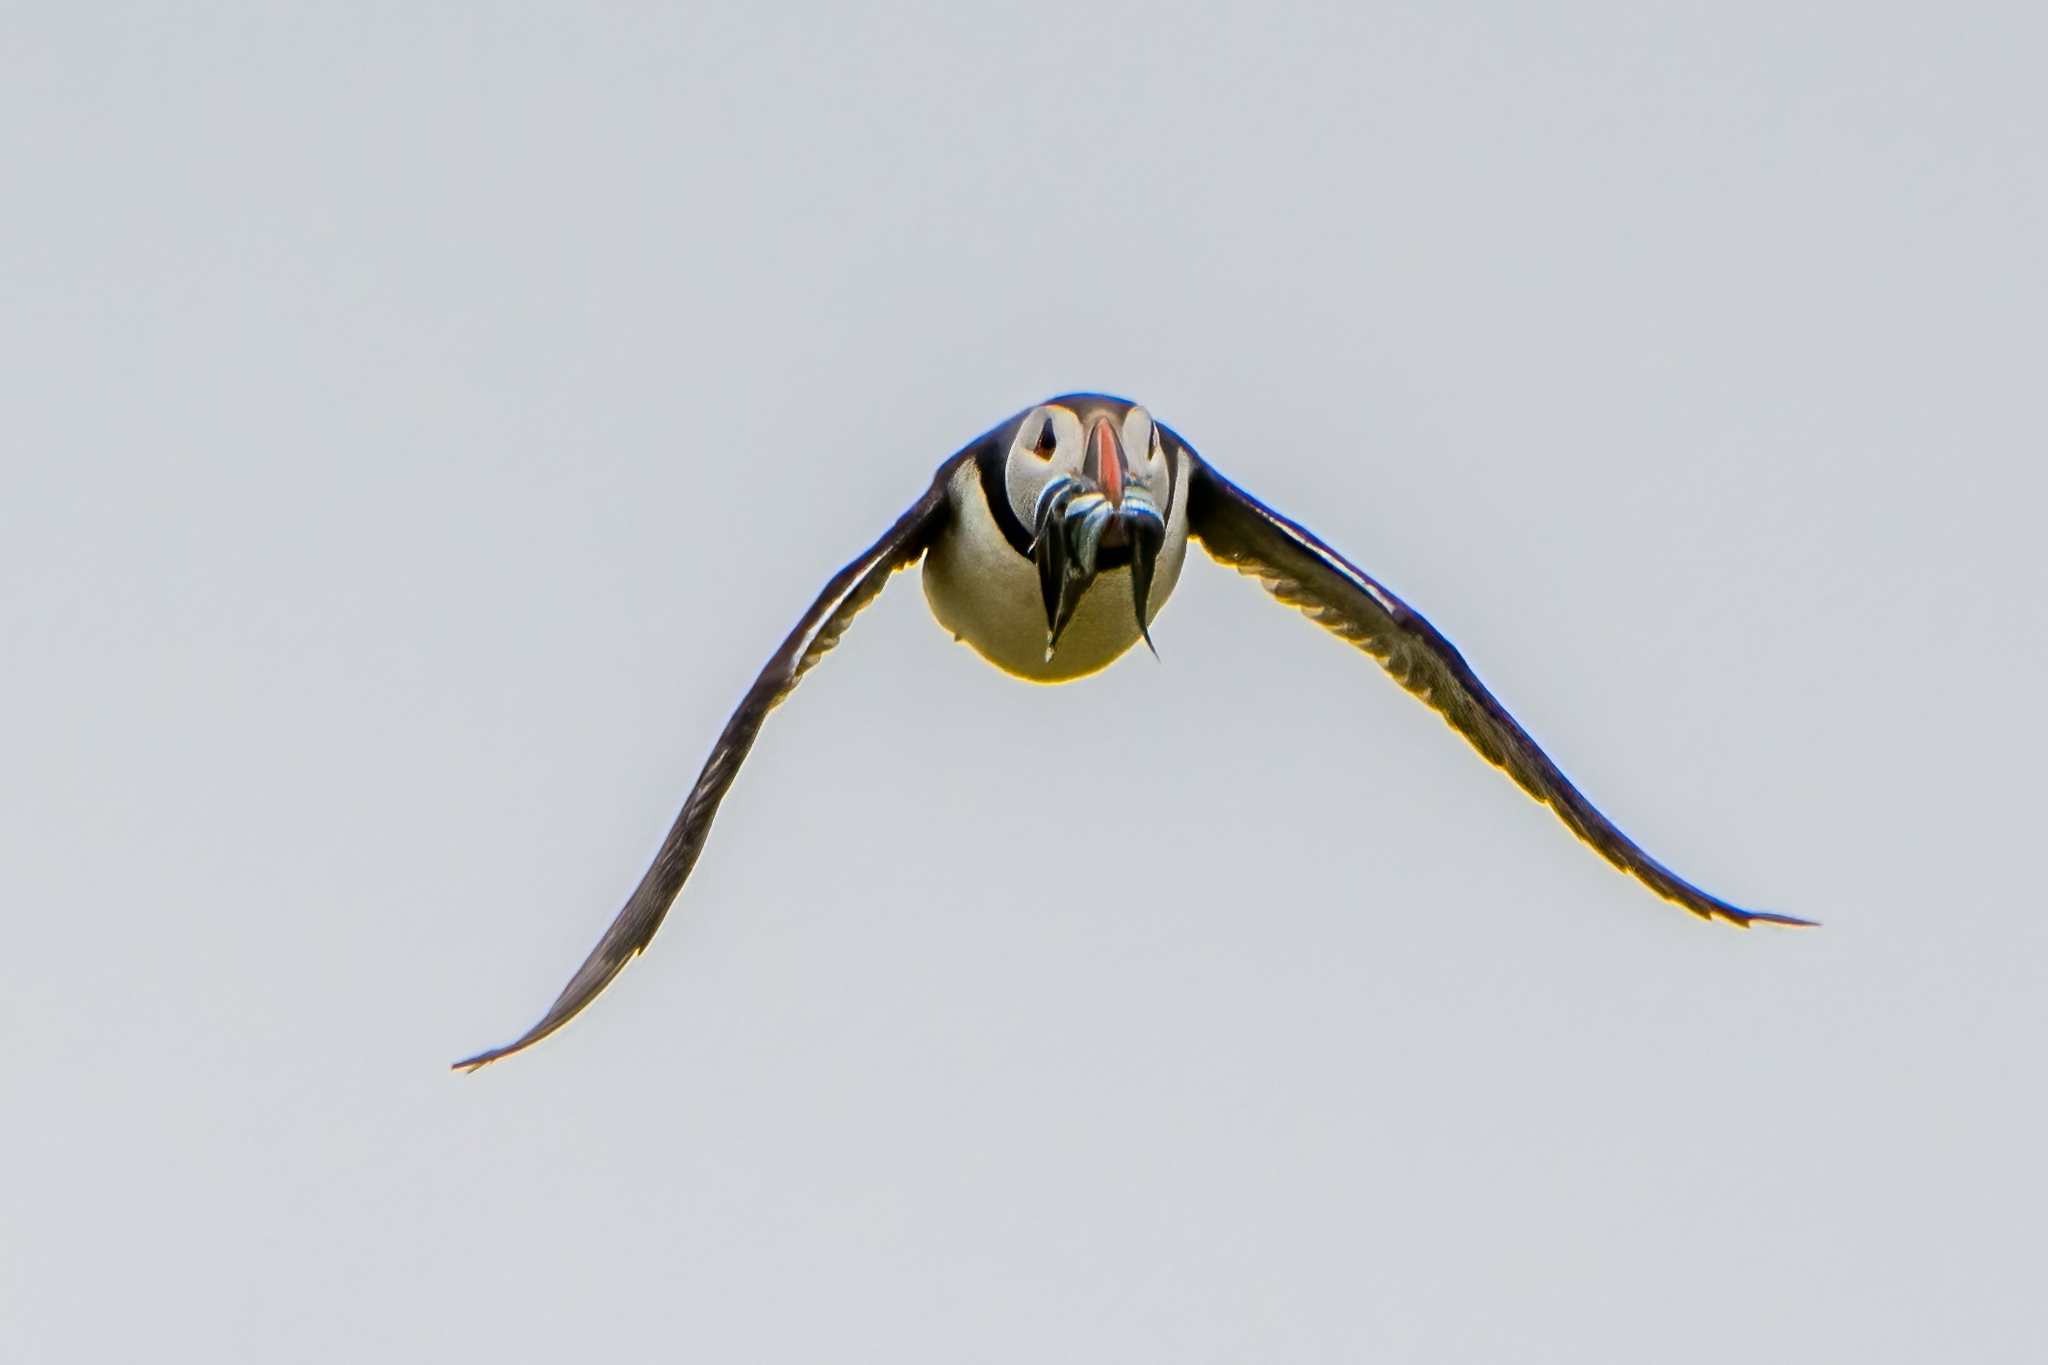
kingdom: Animalia
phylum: Chordata
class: Aves
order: Charadriiformes
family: Alcidae
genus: Fratercula
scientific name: Fratercula arctica
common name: Atlantic puffin
